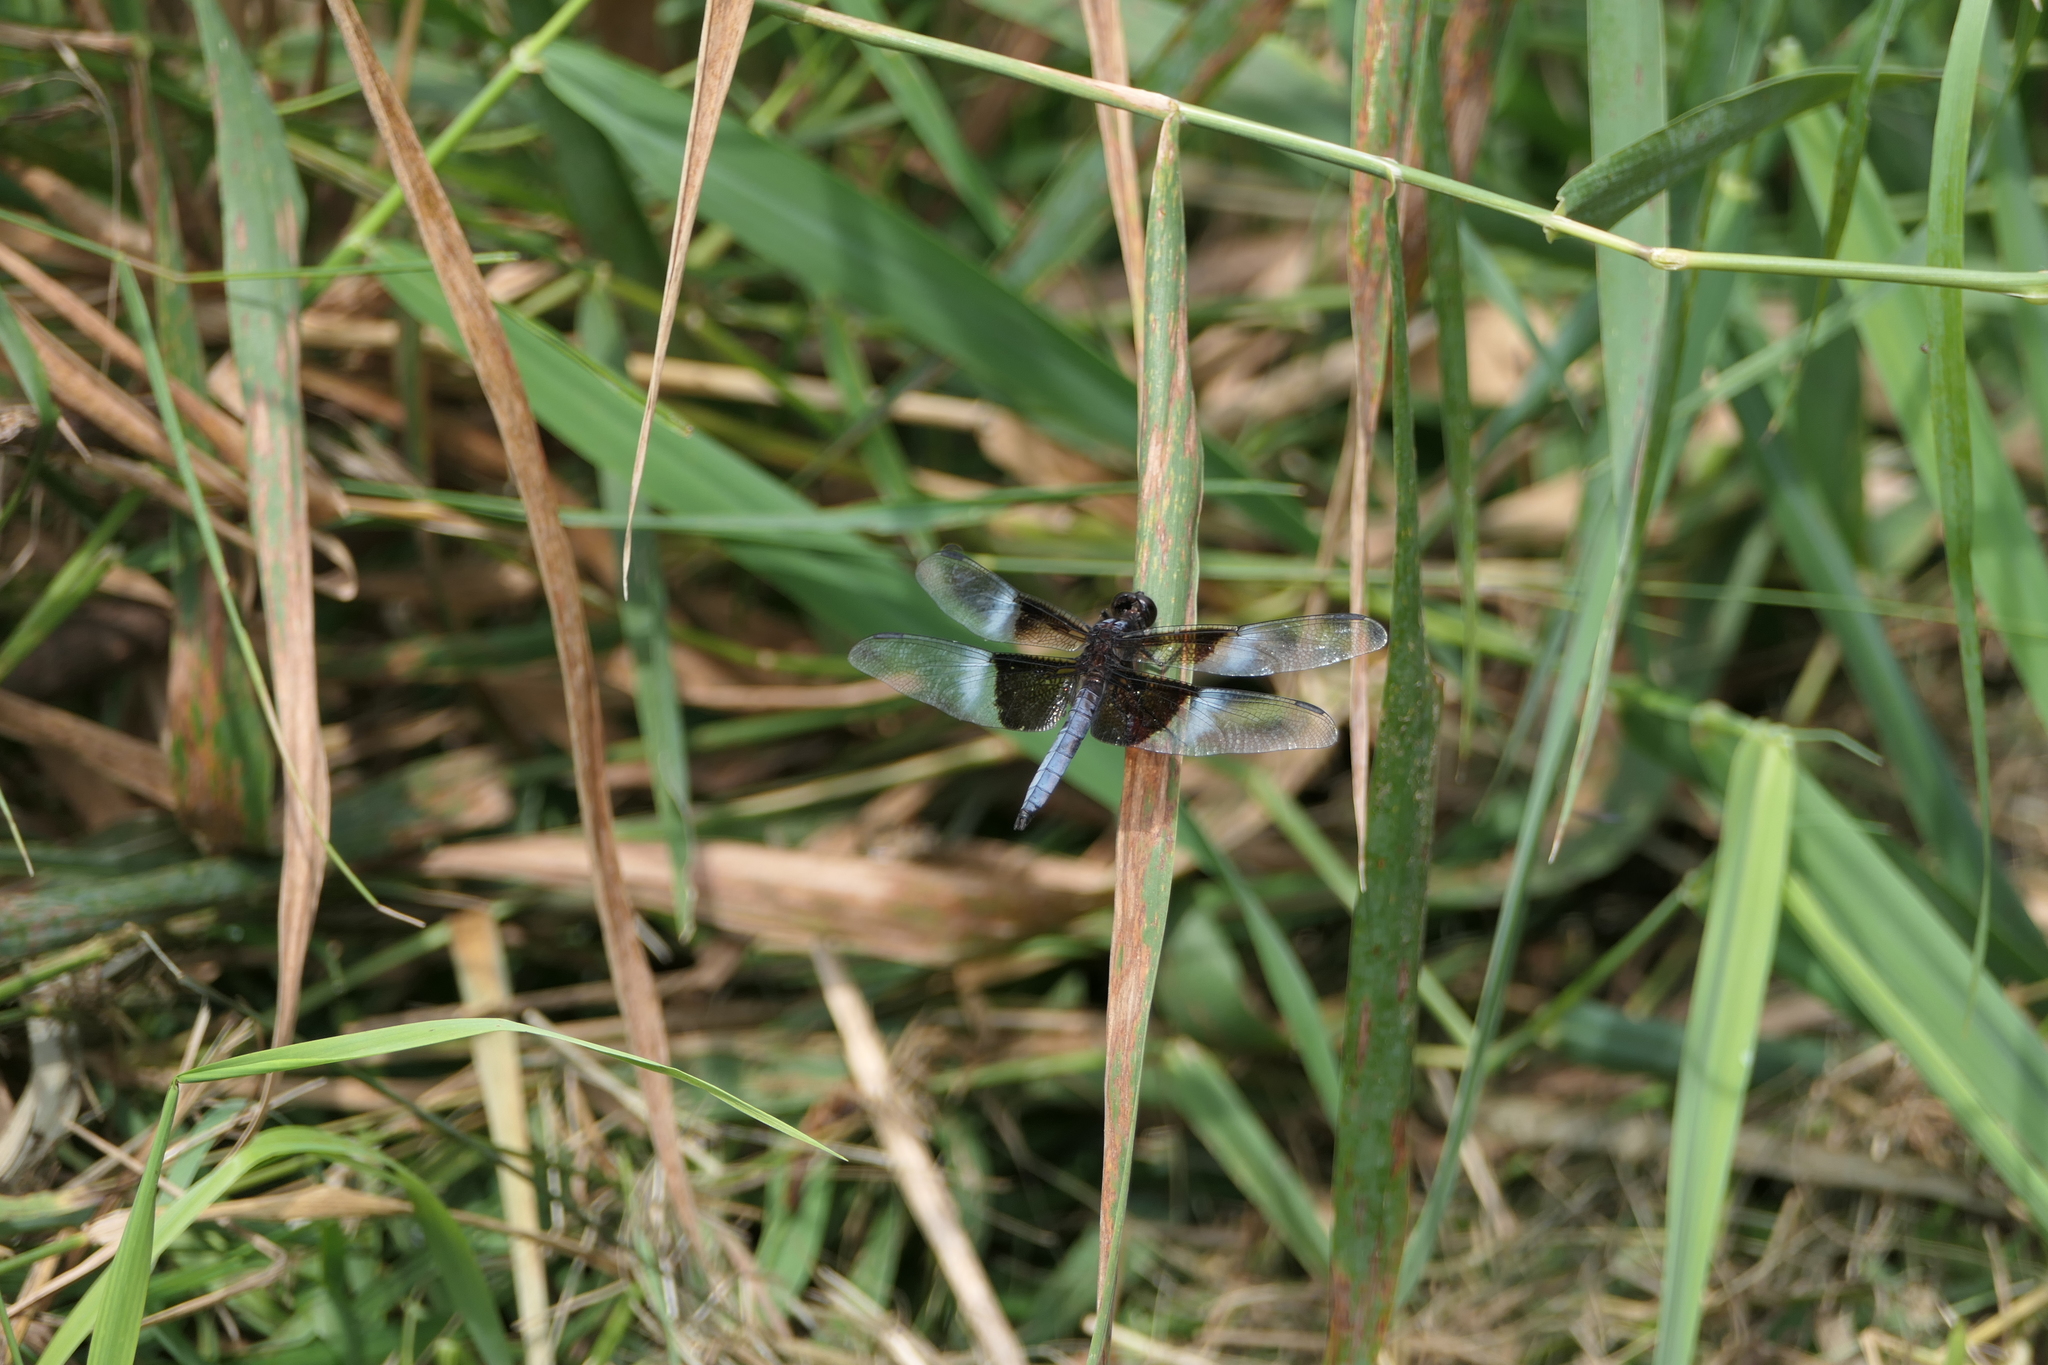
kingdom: Animalia
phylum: Arthropoda
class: Insecta
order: Odonata
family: Libellulidae
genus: Libellula
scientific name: Libellula luctuosa
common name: Widow skimmer
